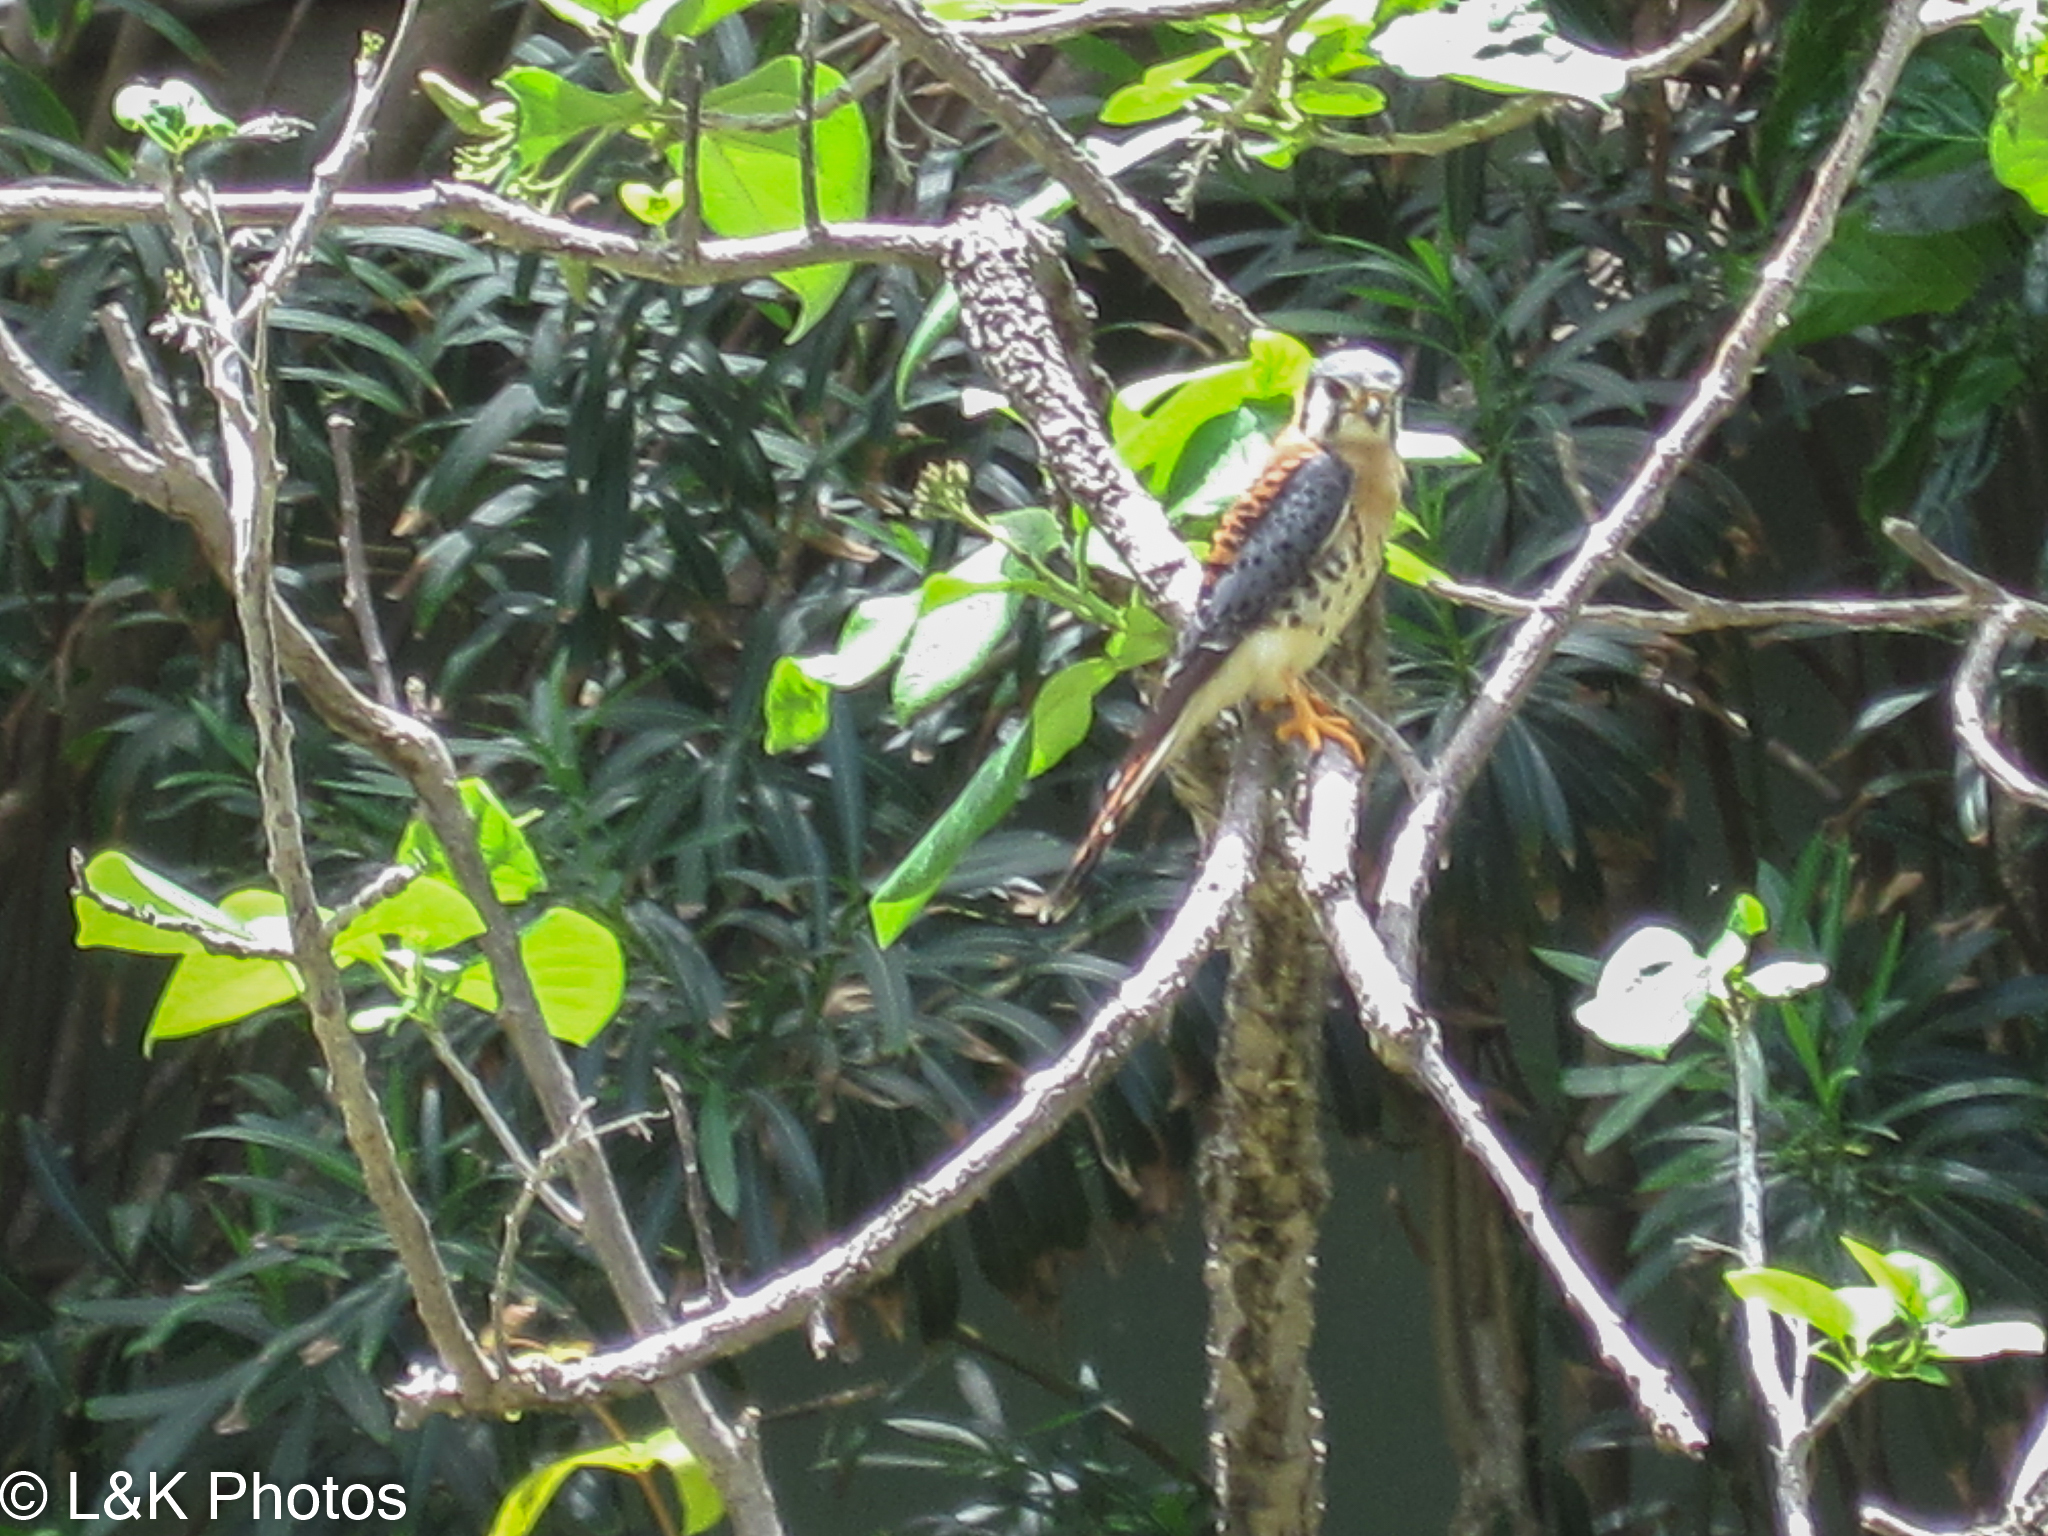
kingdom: Animalia
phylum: Chordata
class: Aves
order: Falconiformes
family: Falconidae
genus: Falco
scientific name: Falco sparverius
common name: American kestrel
